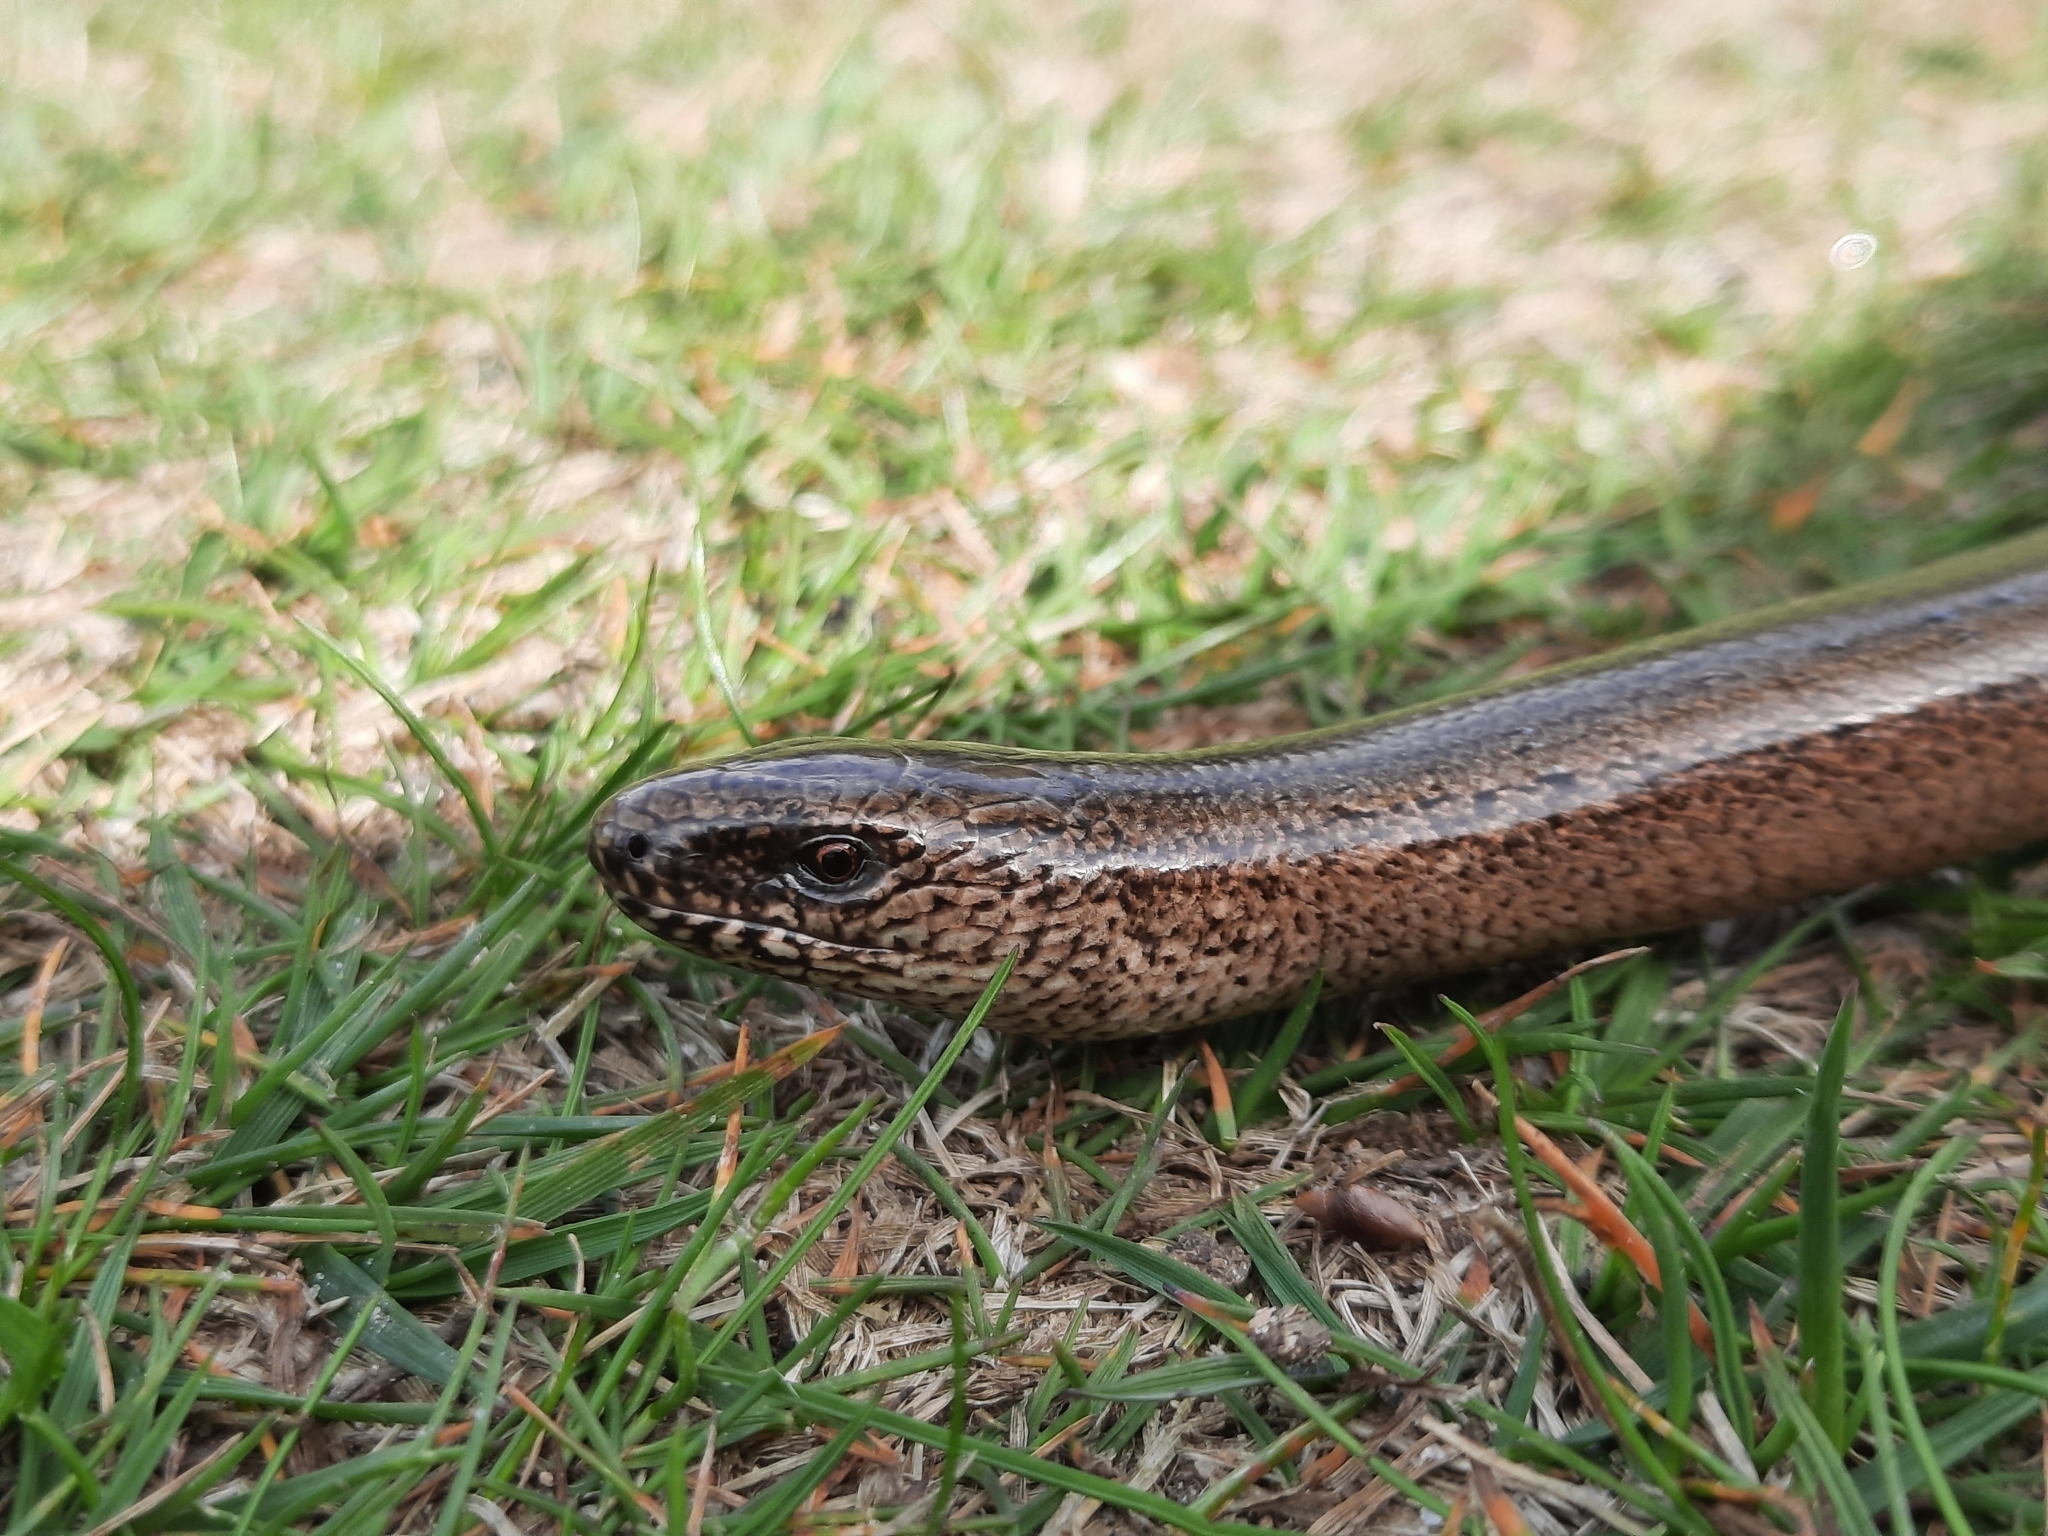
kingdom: Animalia
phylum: Chordata
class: Squamata
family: Anguidae
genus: Anguis
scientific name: Anguis fragilis
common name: Slow worm
